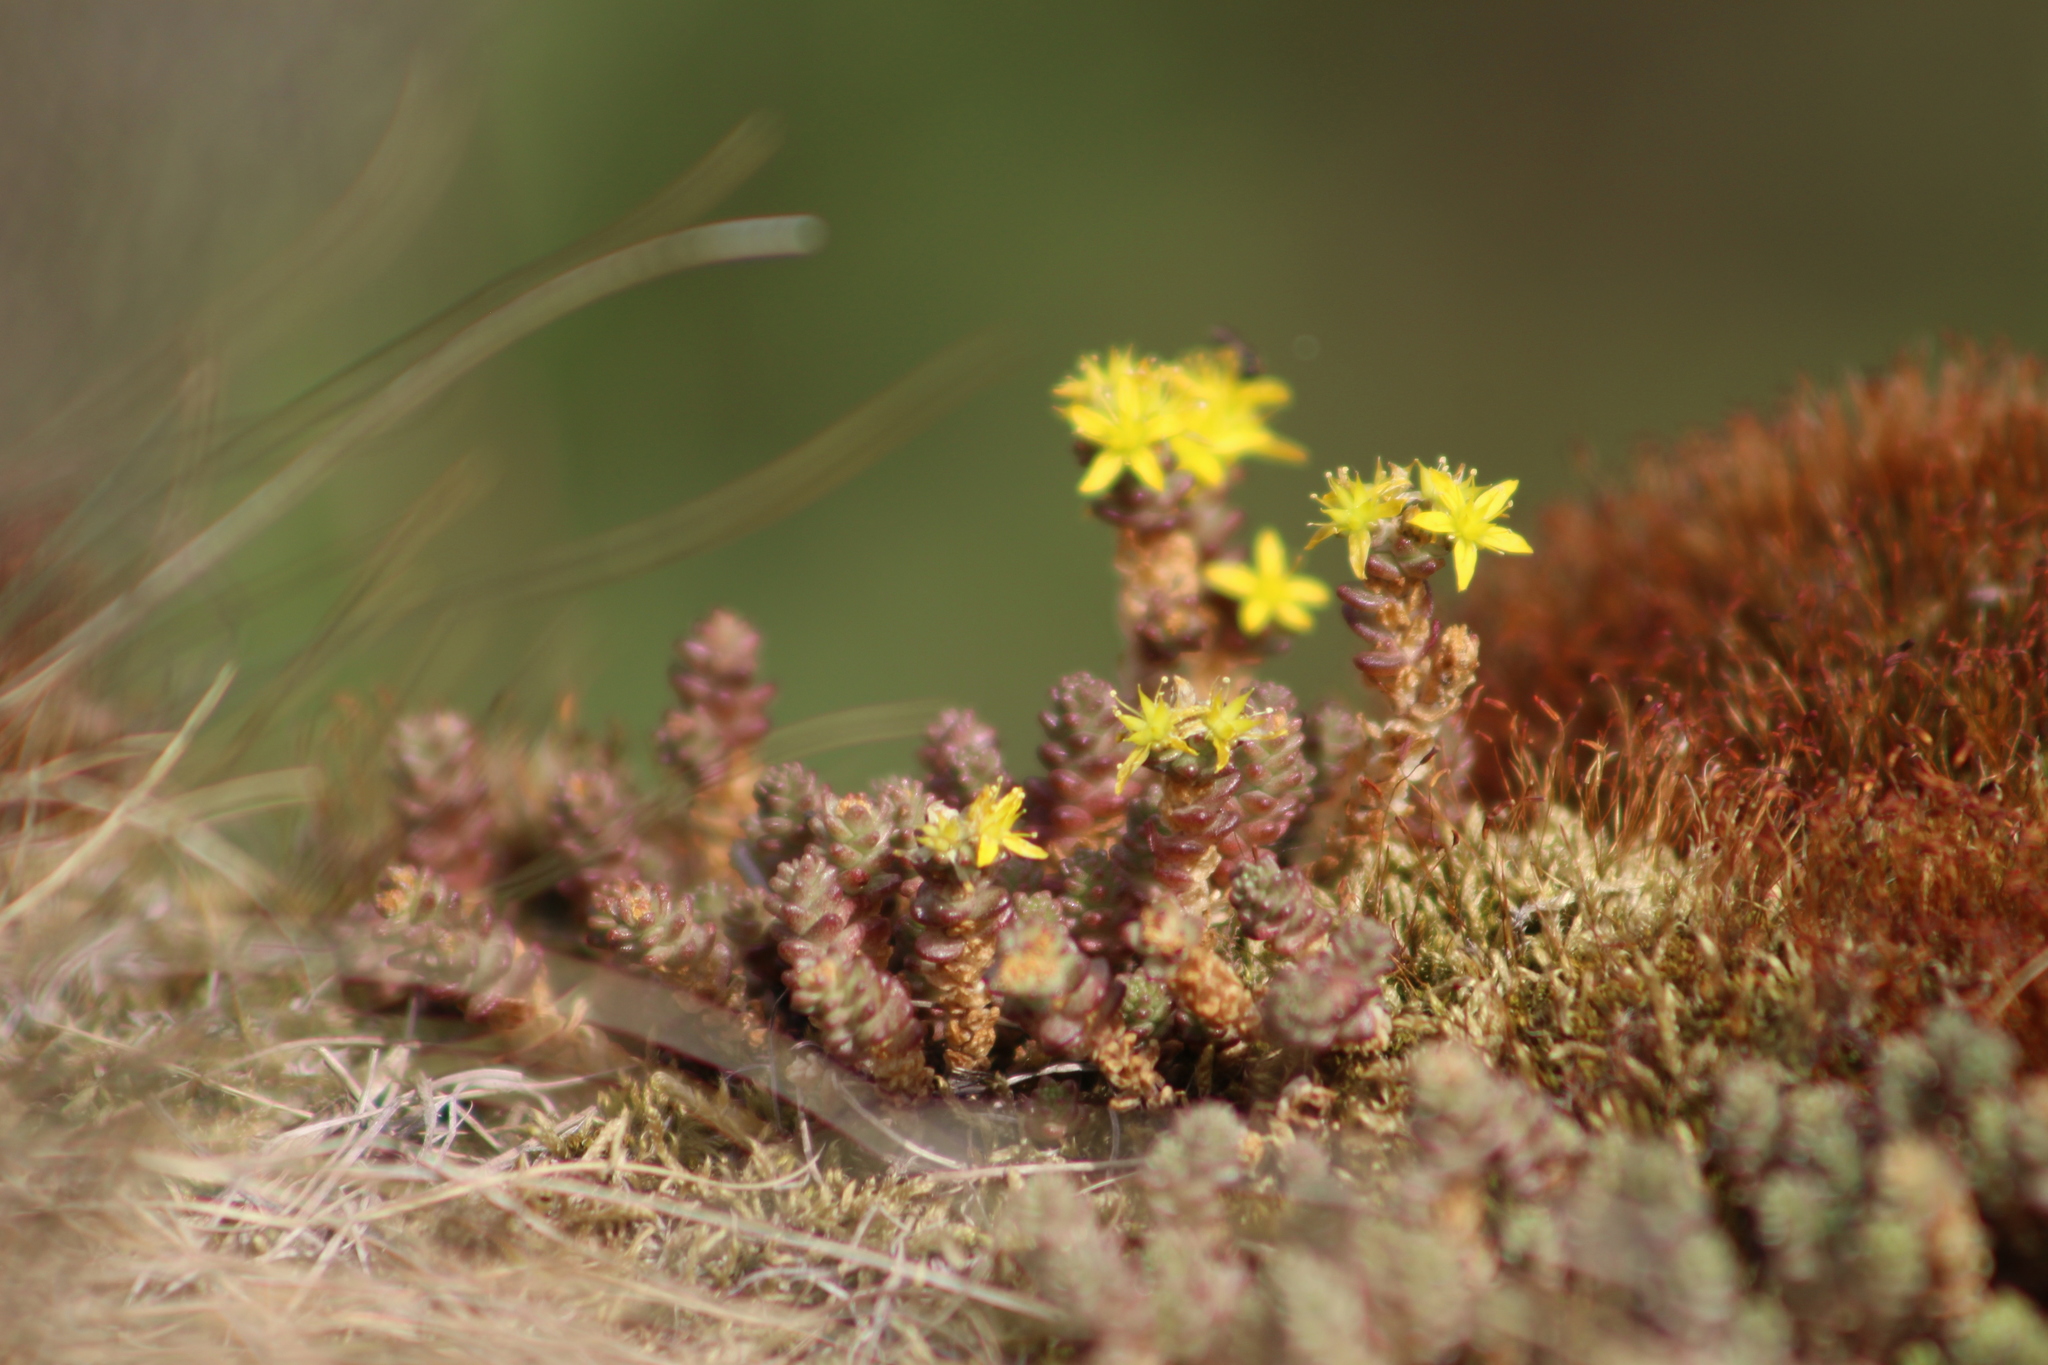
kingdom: Plantae
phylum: Tracheophyta
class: Magnoliopsida
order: Saxifragales
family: Crassulaceae
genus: Sedum
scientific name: Sedum acre
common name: Biting stonecrop
